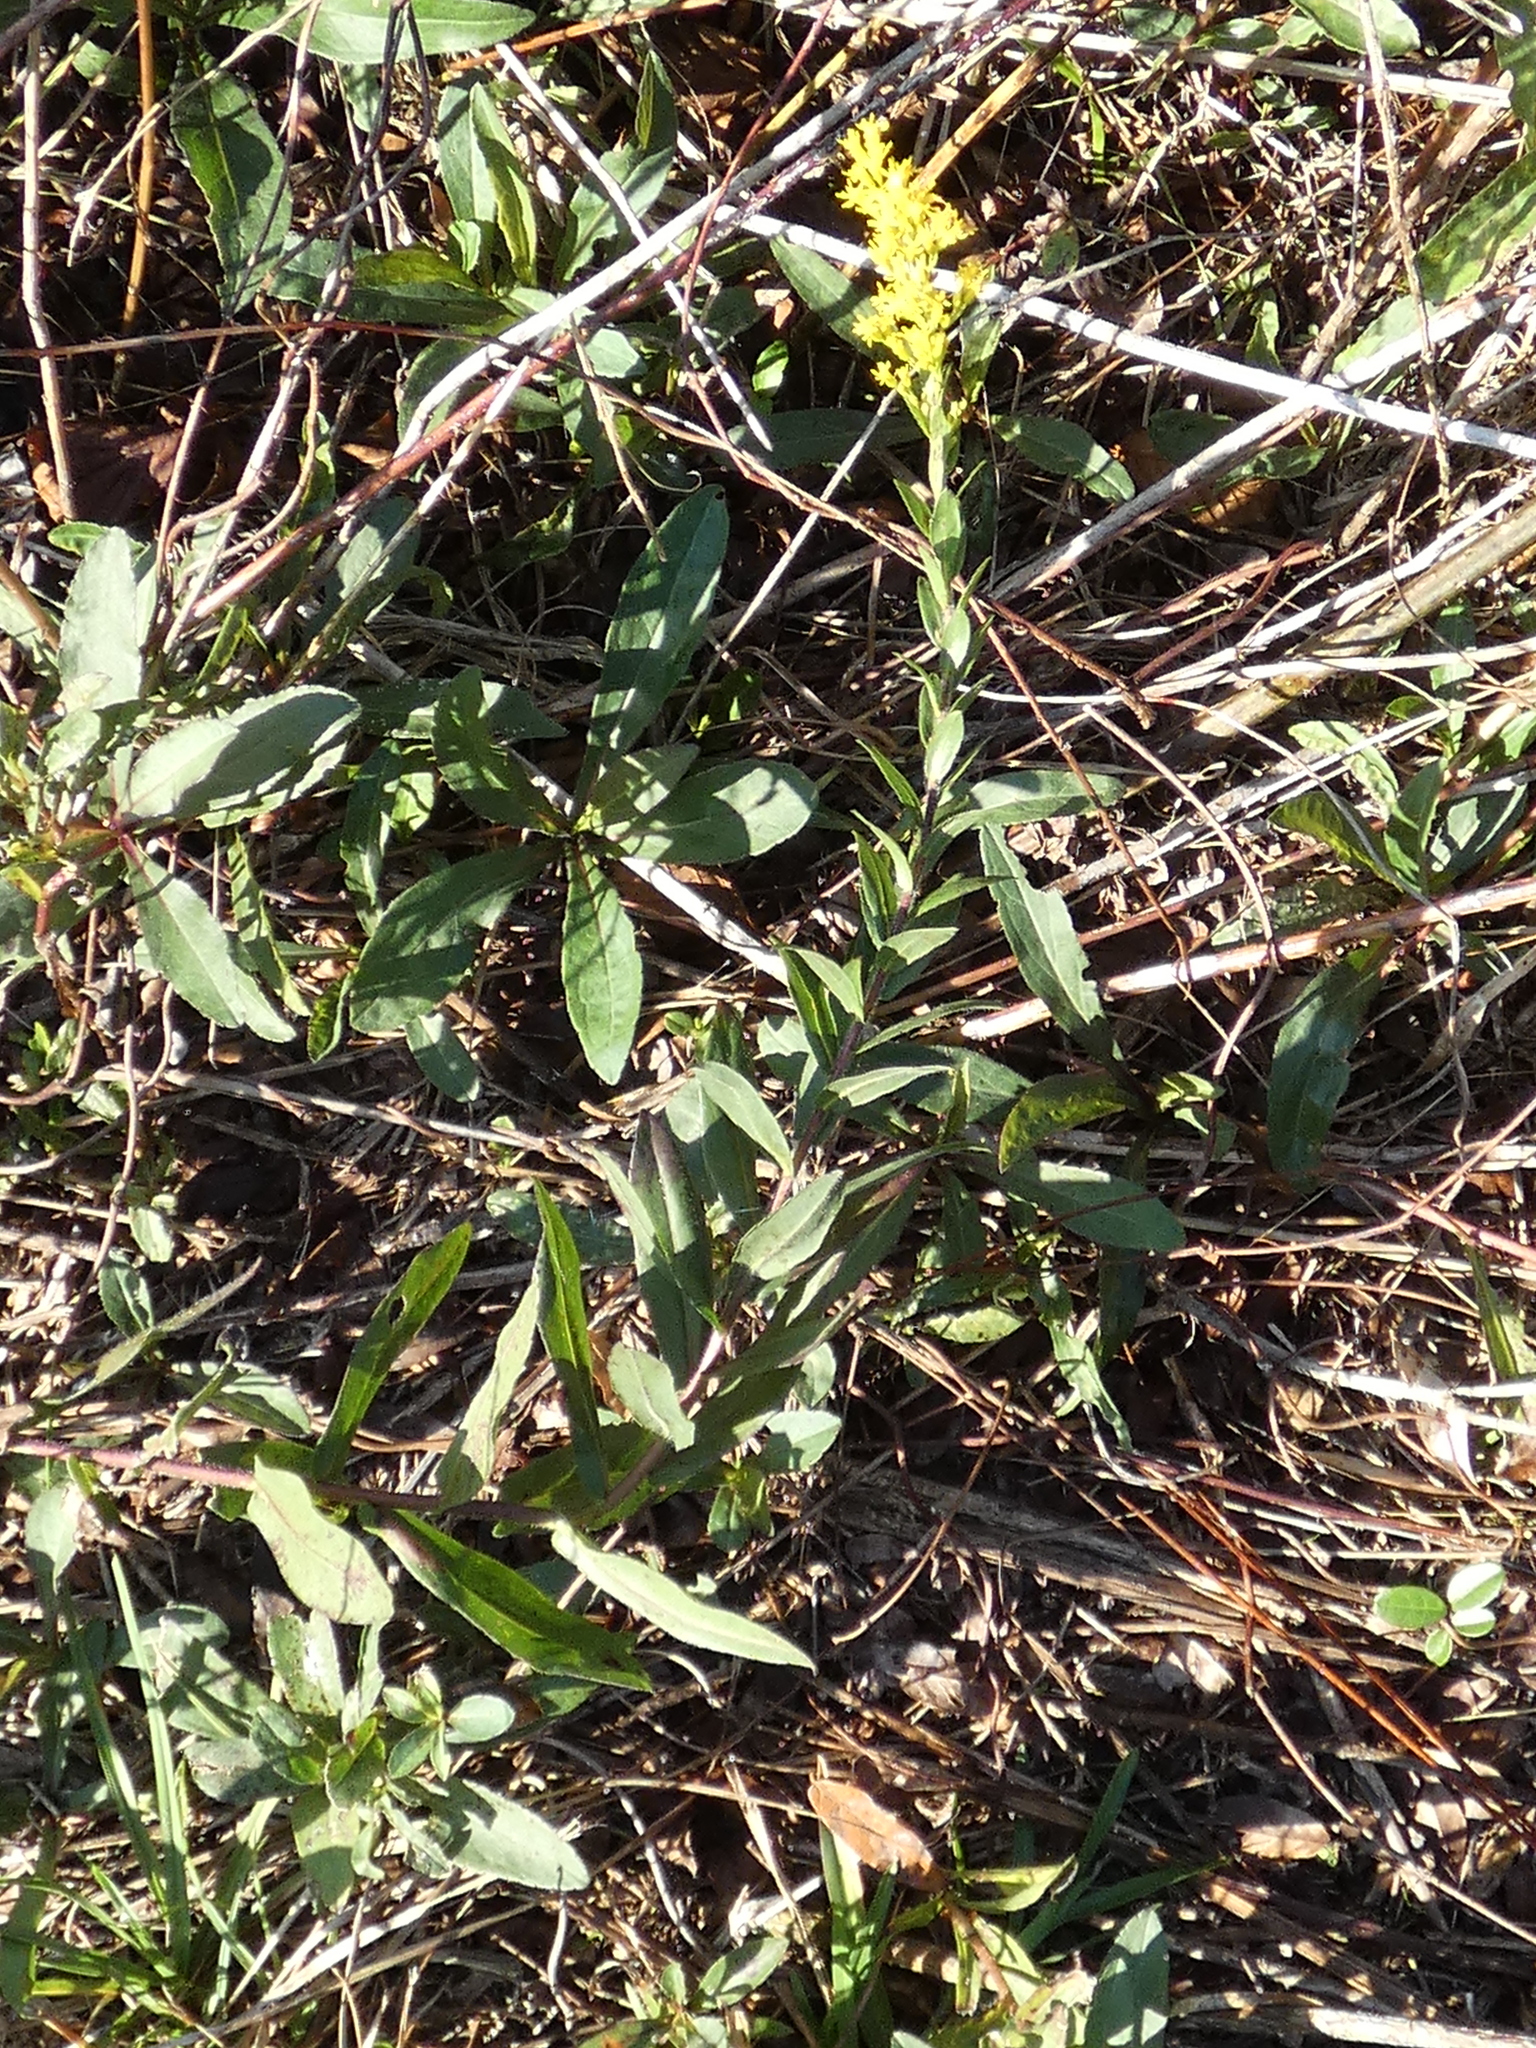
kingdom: Plantae
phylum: Tracheophyta
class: Magnoliopsida
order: Asterales
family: Asteraceae
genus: Solidago
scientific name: Solidago fistulosa
